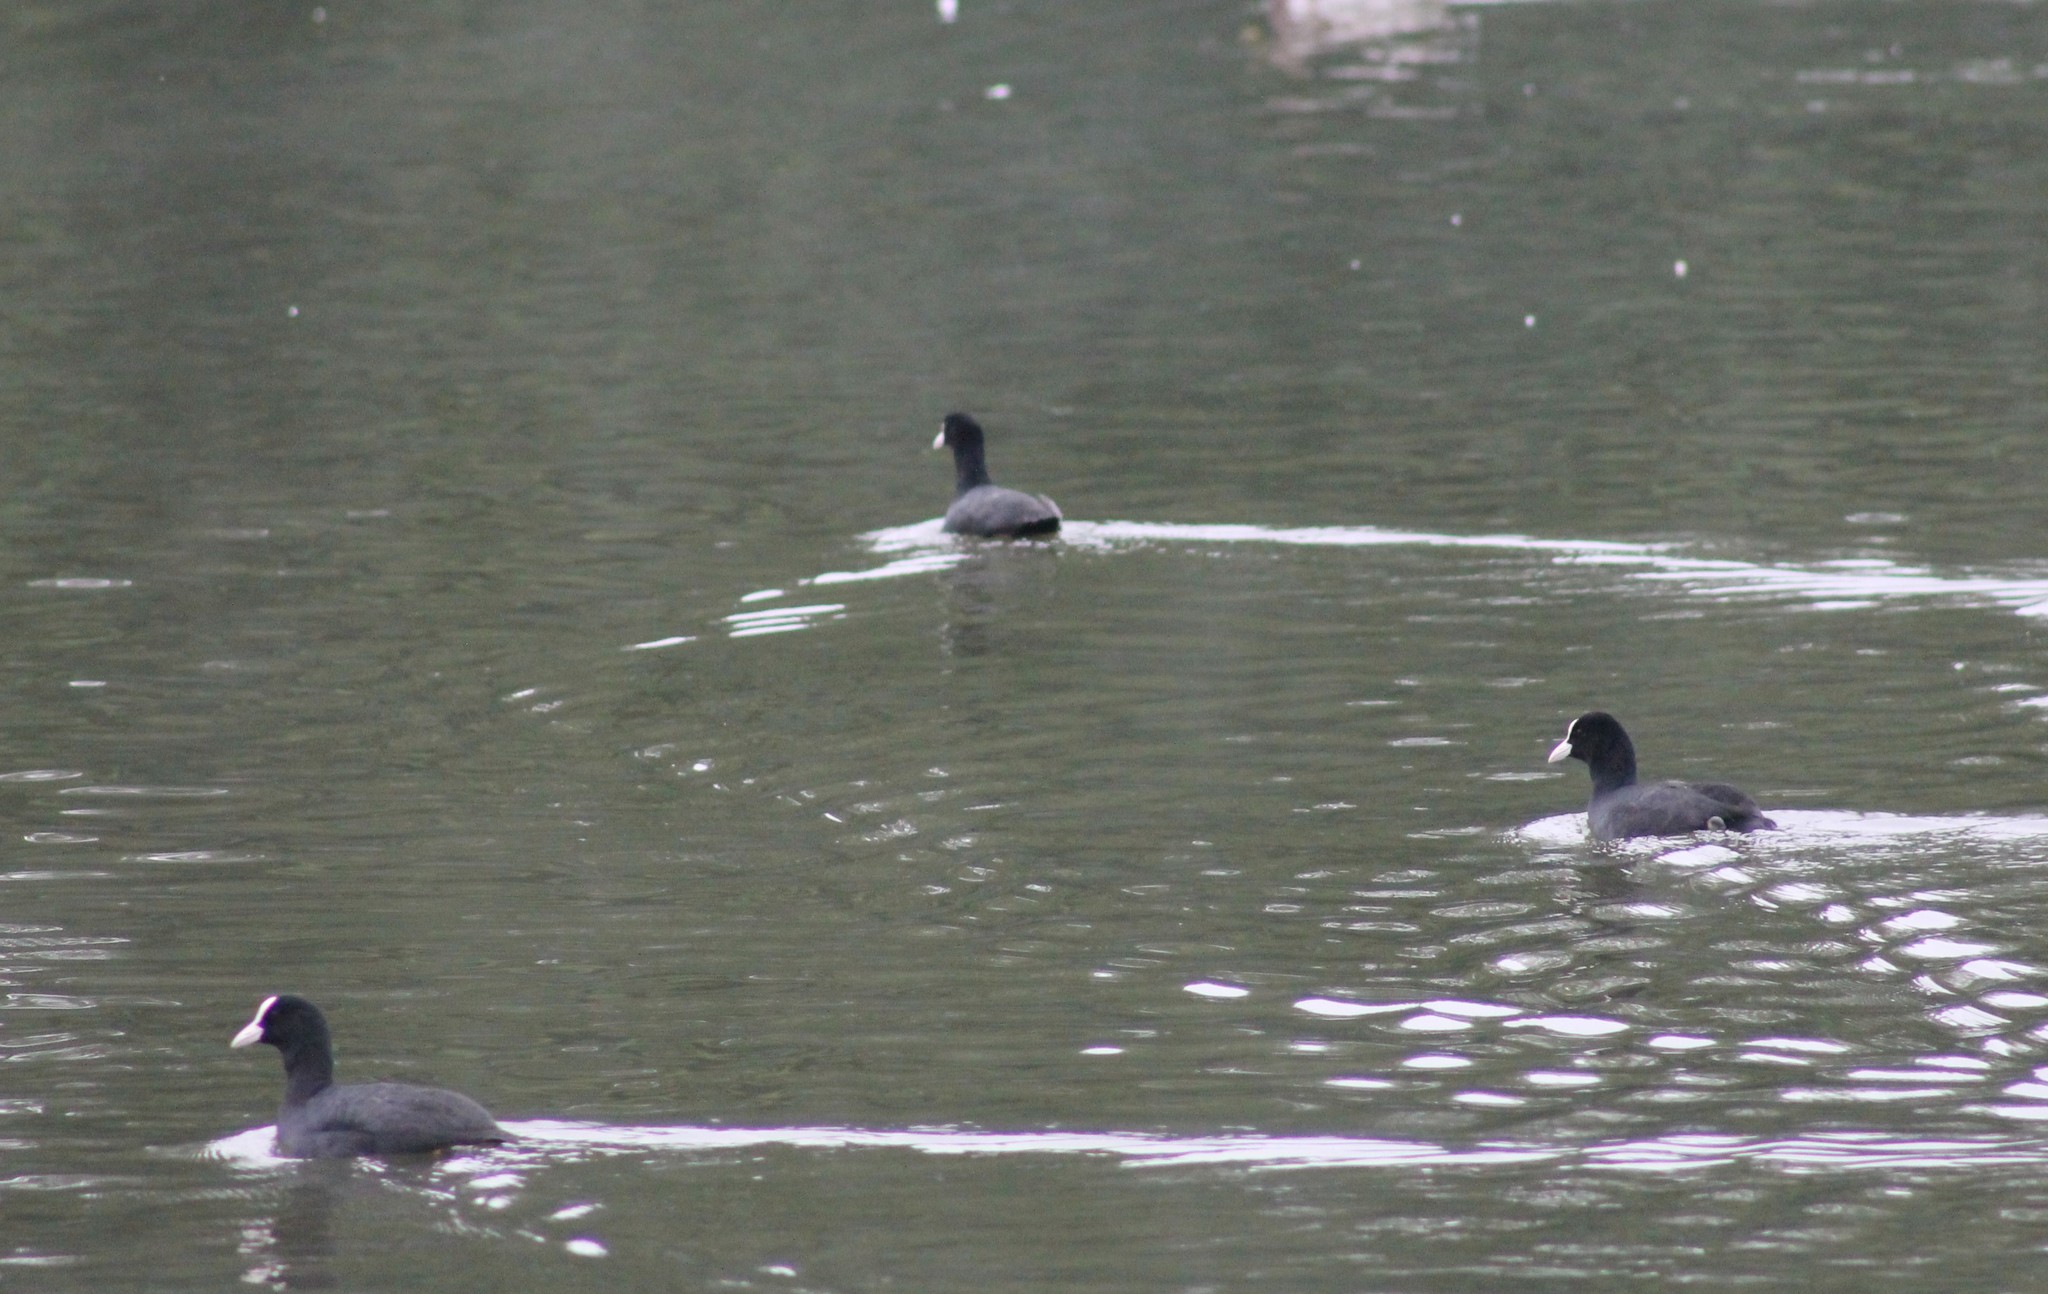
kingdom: Animalia
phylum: Chordata
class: Aves
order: Gruiformes
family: Rallidae
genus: Fulica
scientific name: Fulica atra
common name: Eurasian coot
